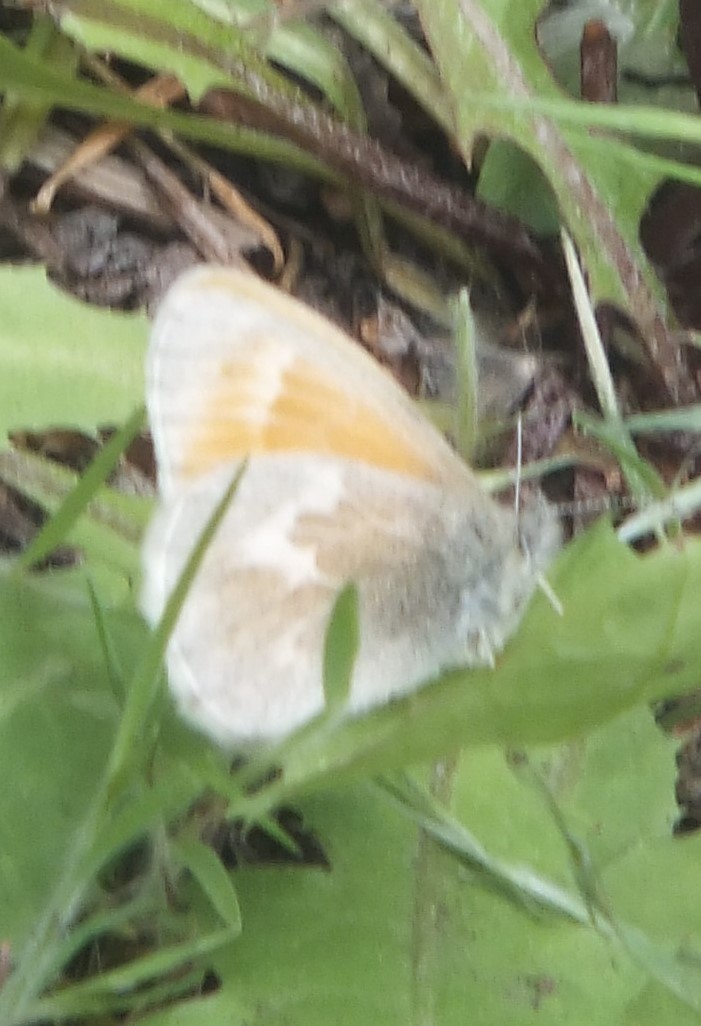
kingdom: Animalia
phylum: Arthropoda
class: Insecta
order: Lepidoptera
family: Nymphalidae
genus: Coenonympha
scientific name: Coenonympha california
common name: Common ringlet
